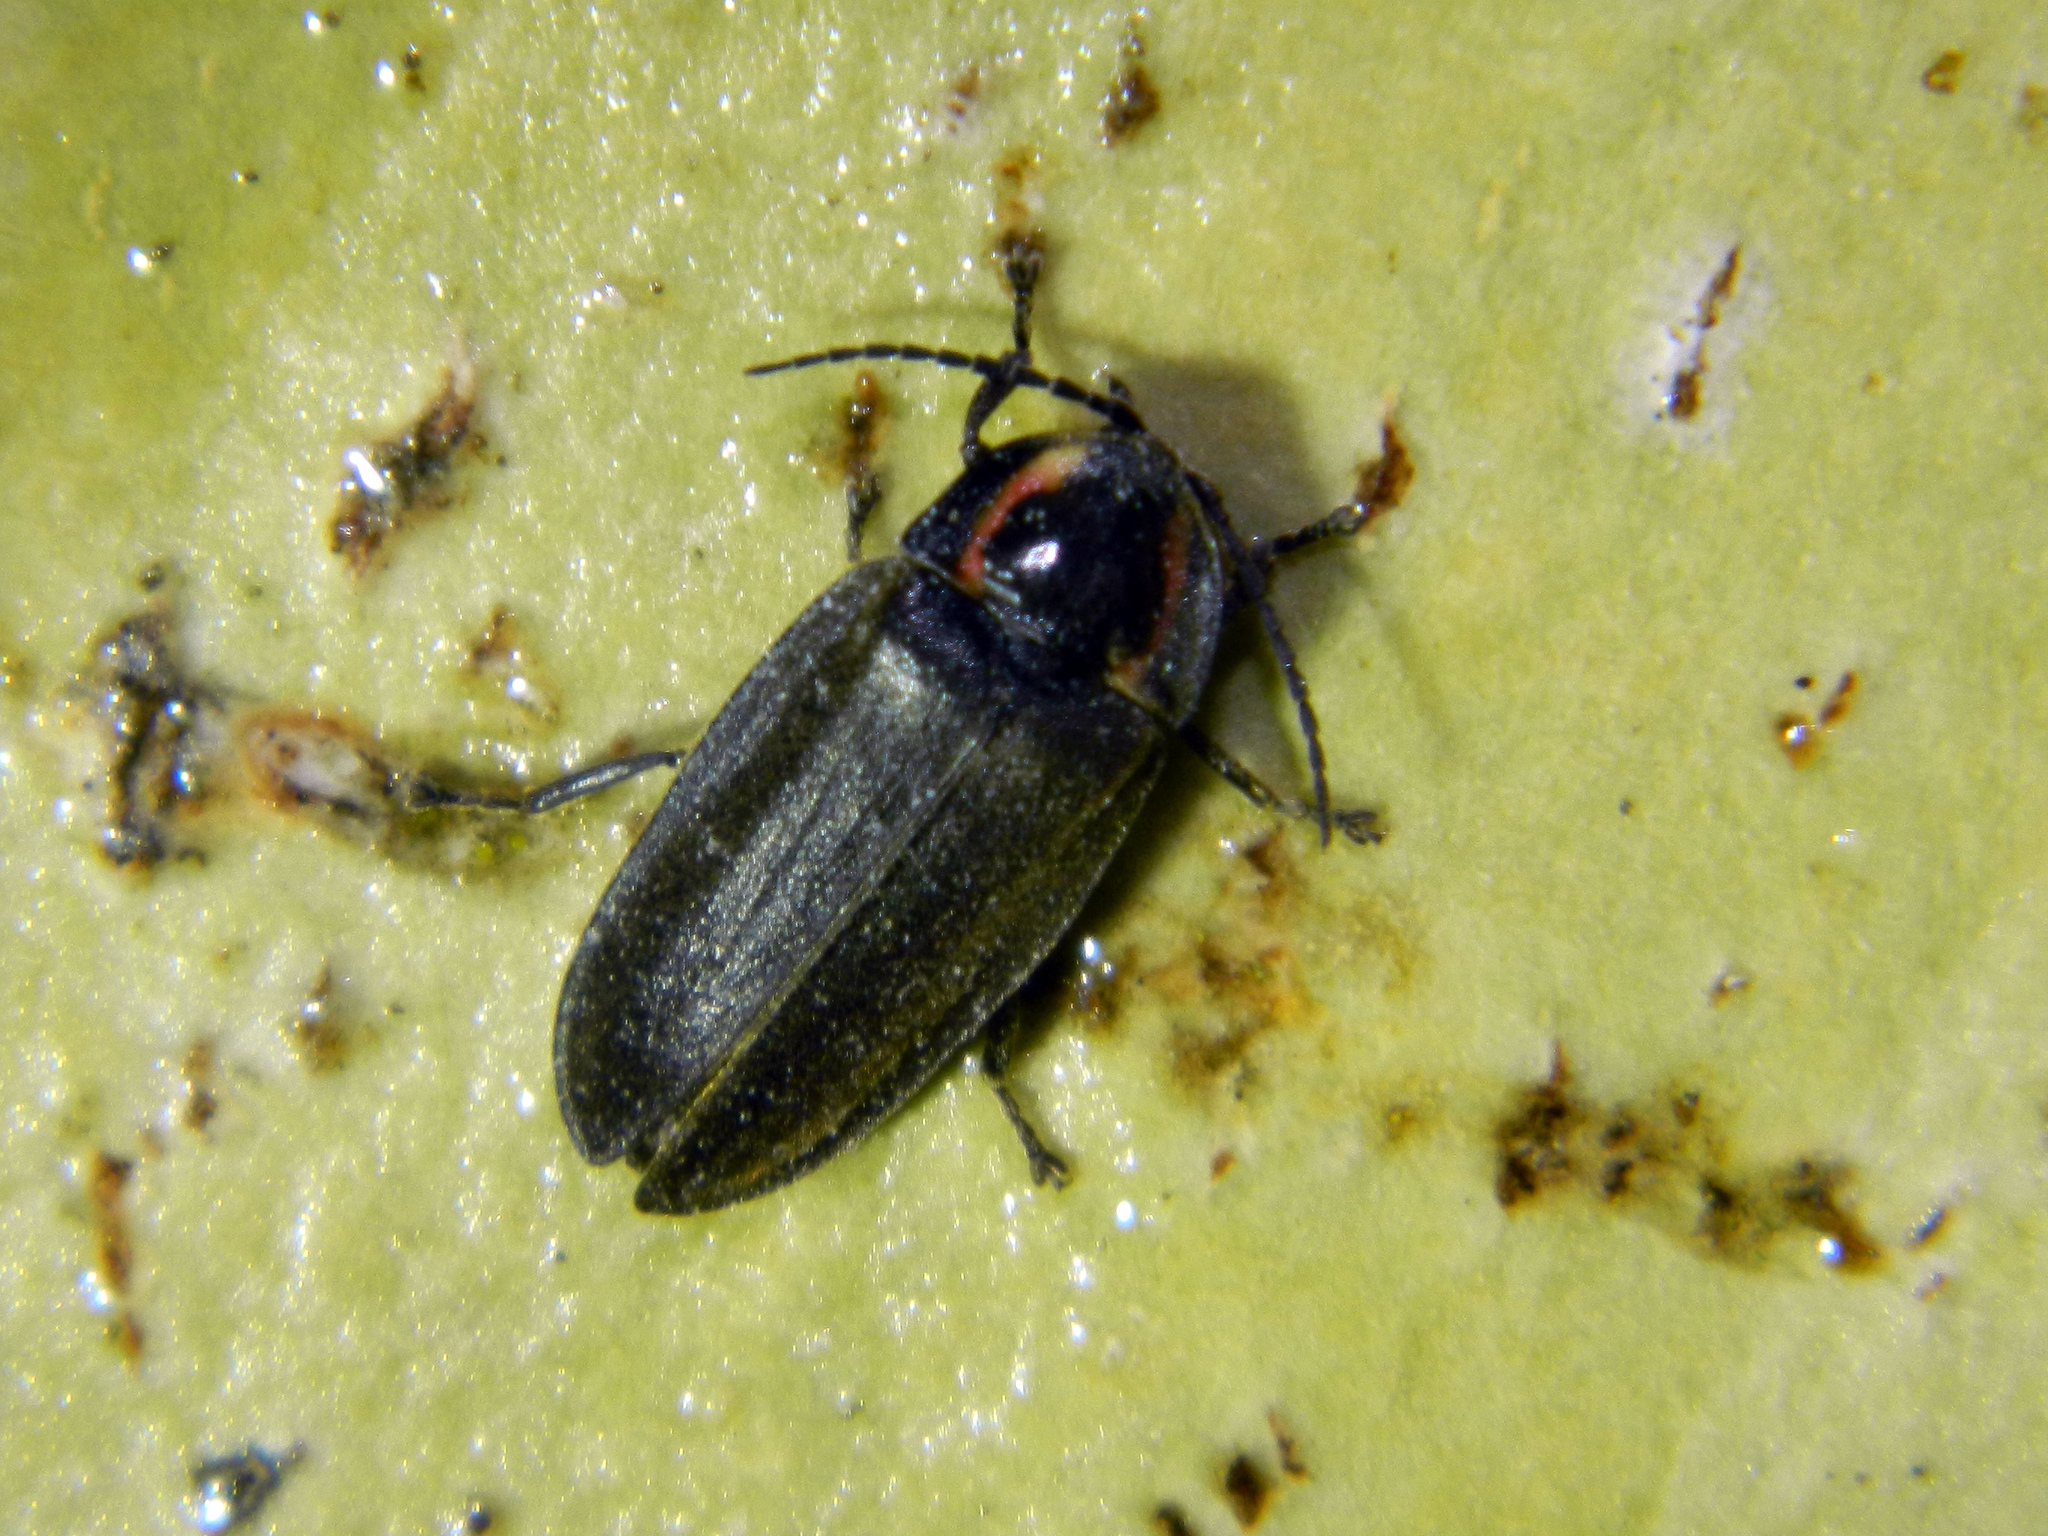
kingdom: Animalia
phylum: Arthropoda
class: Insecta
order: Coleoptera
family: Lampyridae
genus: Photinus
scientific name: Photinus corrusca
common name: Winter firefly
